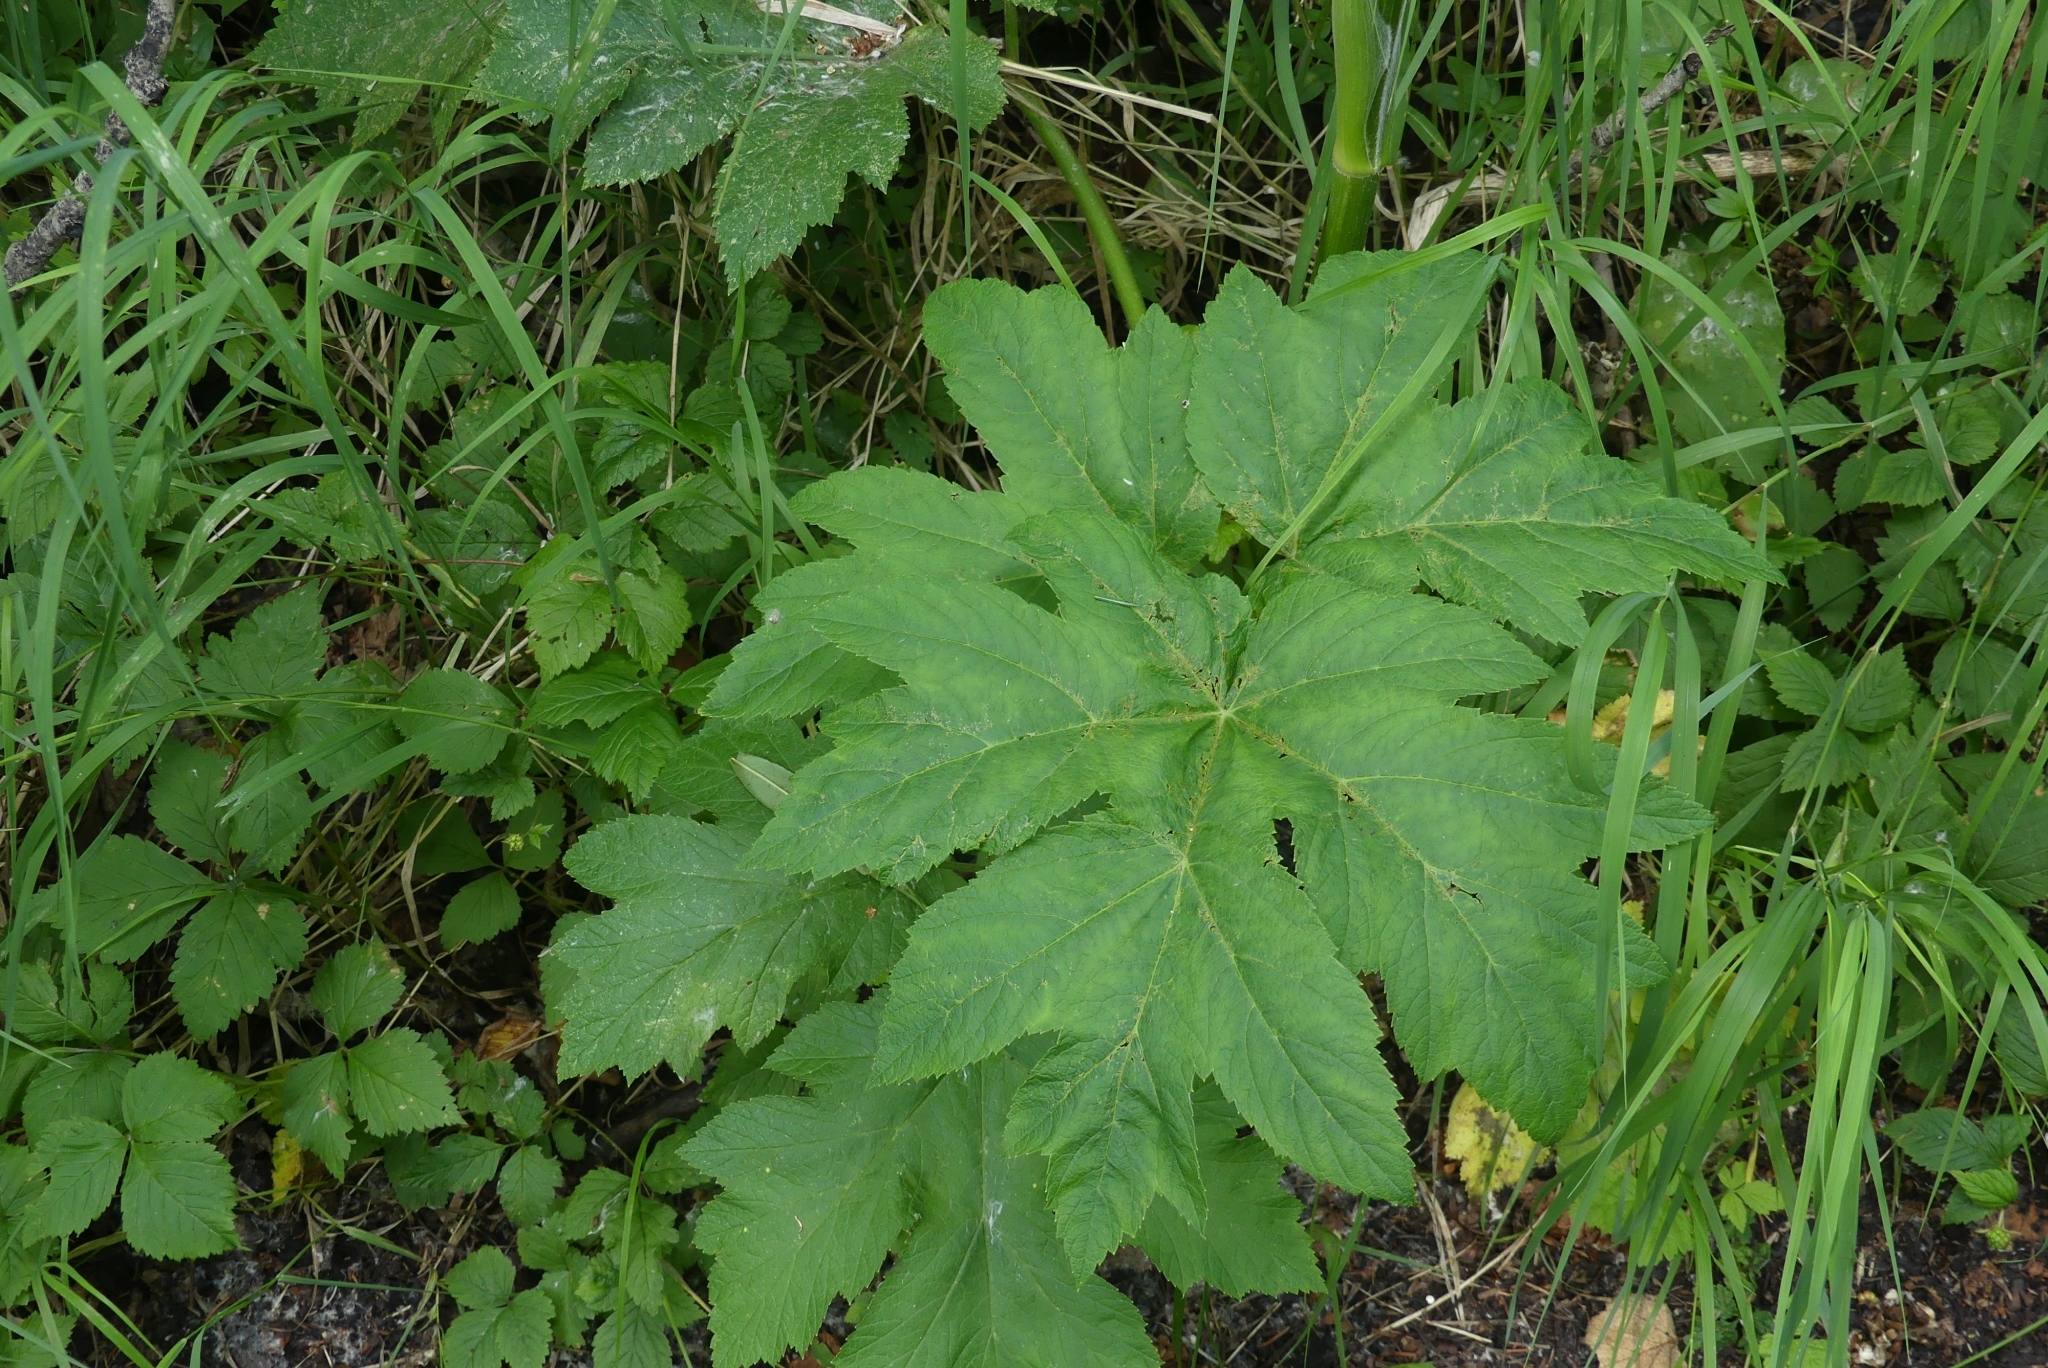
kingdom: Plantae
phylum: Tracheophyta
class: Magnoliopsida
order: Apiales
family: Apiaceae
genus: Heracleum
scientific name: Heracleum maximum
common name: American cow parsnip
